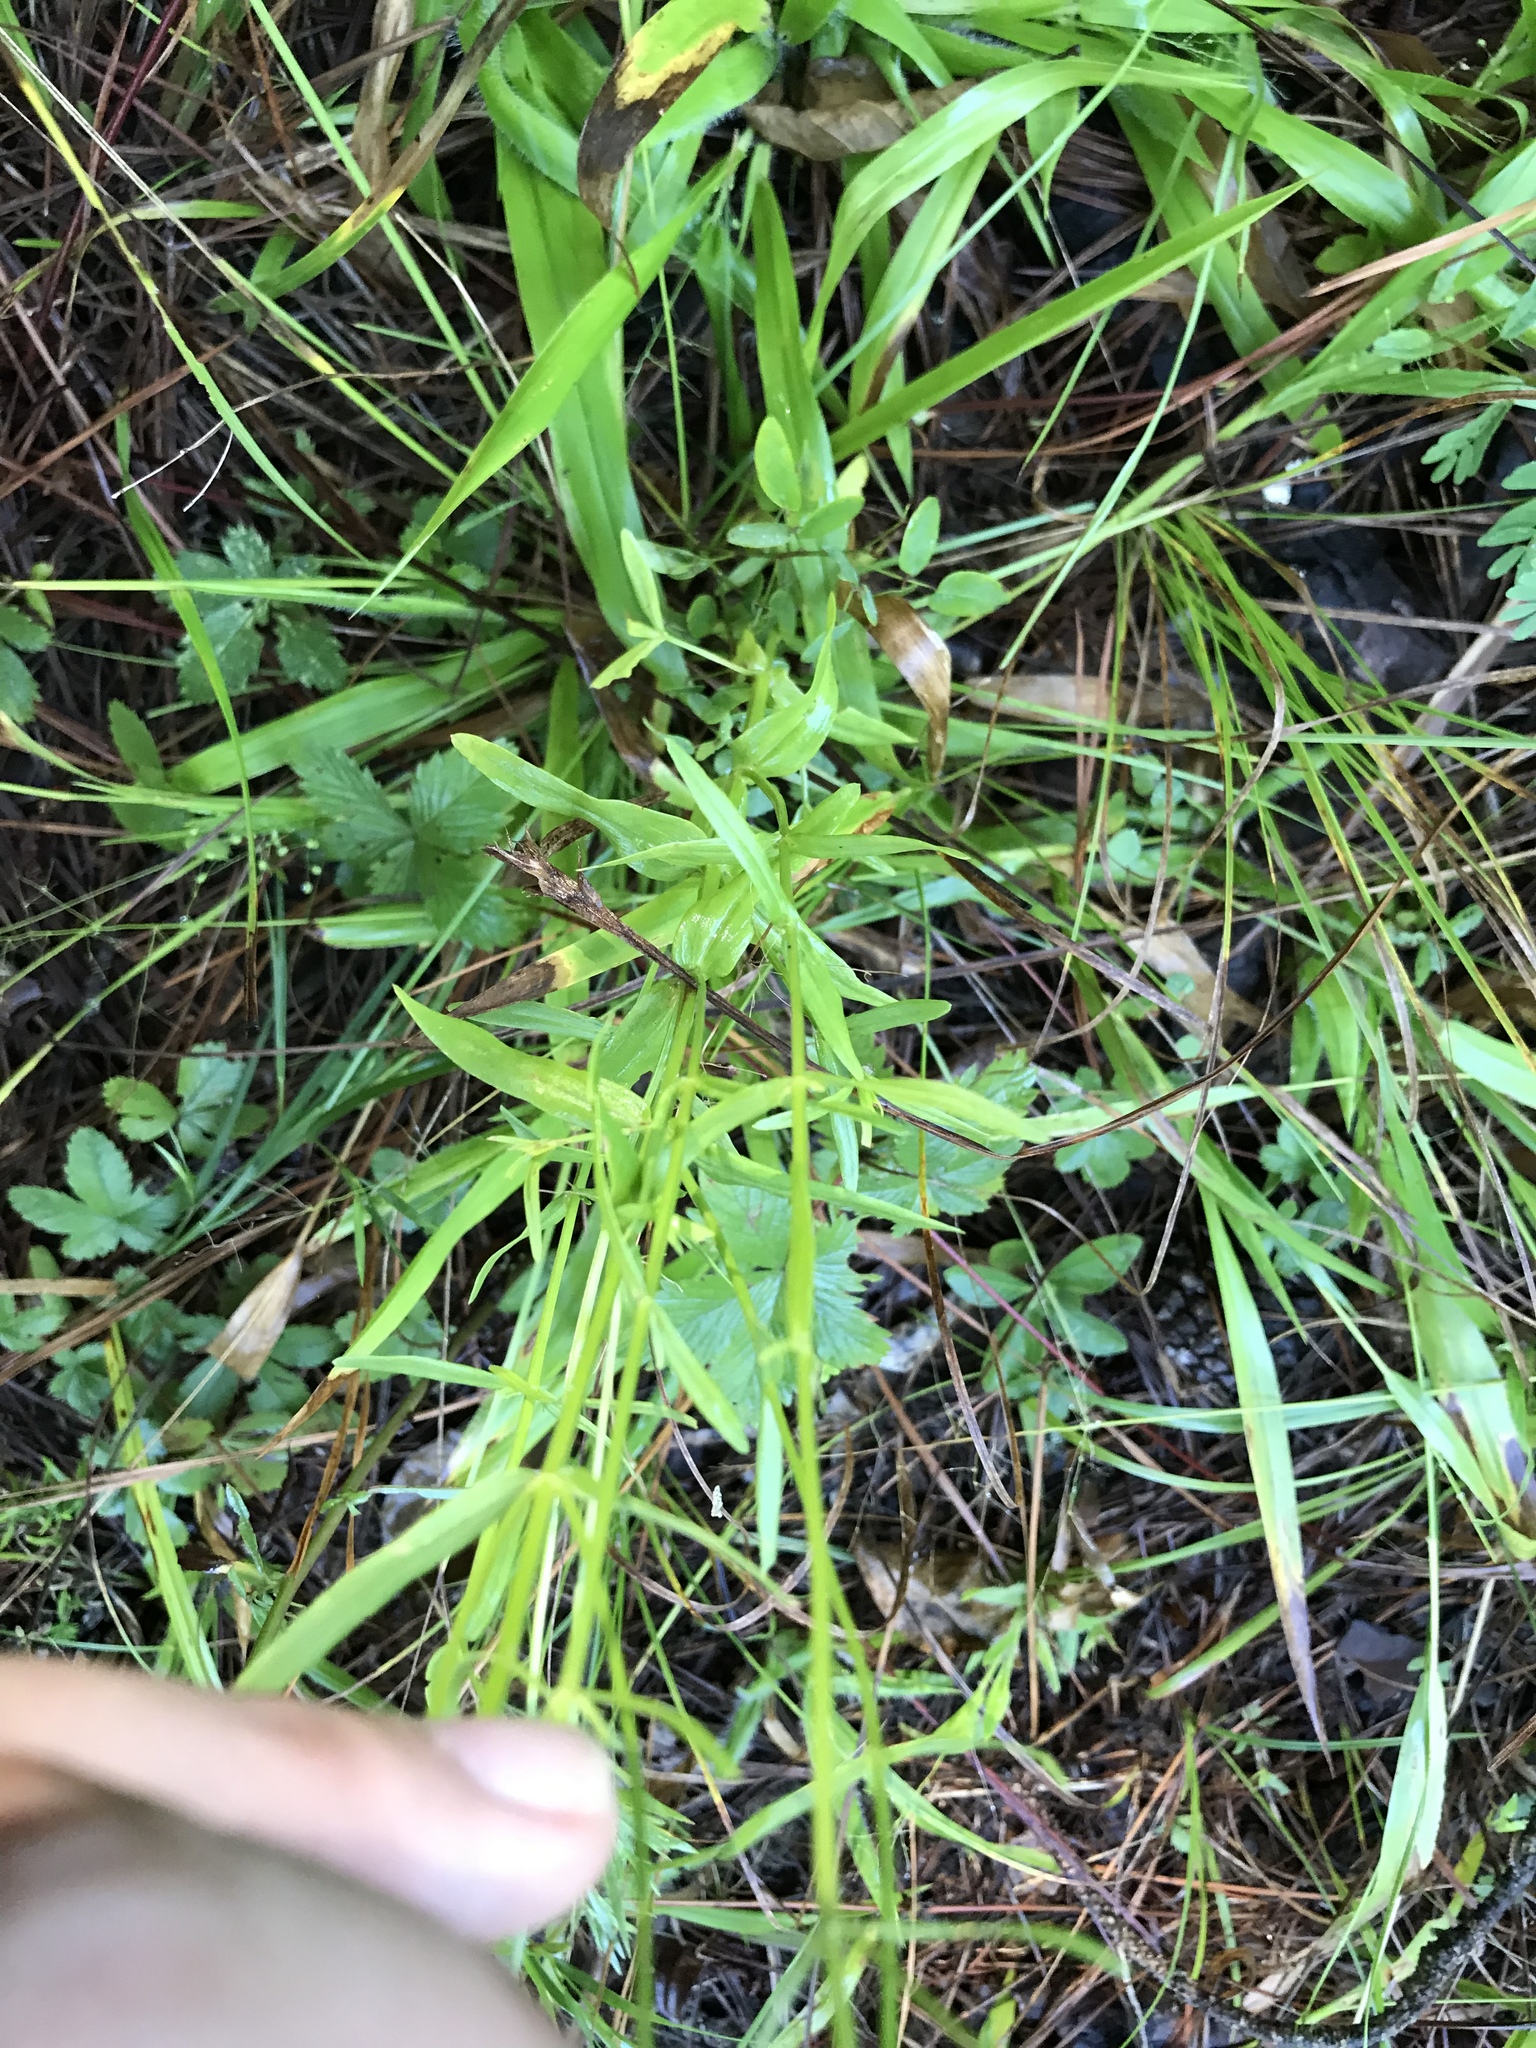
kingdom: Plantae
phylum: Tracheophyta
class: Magnoliopsida
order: Gentianales
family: Gentianaceae
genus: Sabatia
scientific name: Sabatia quadrangula
